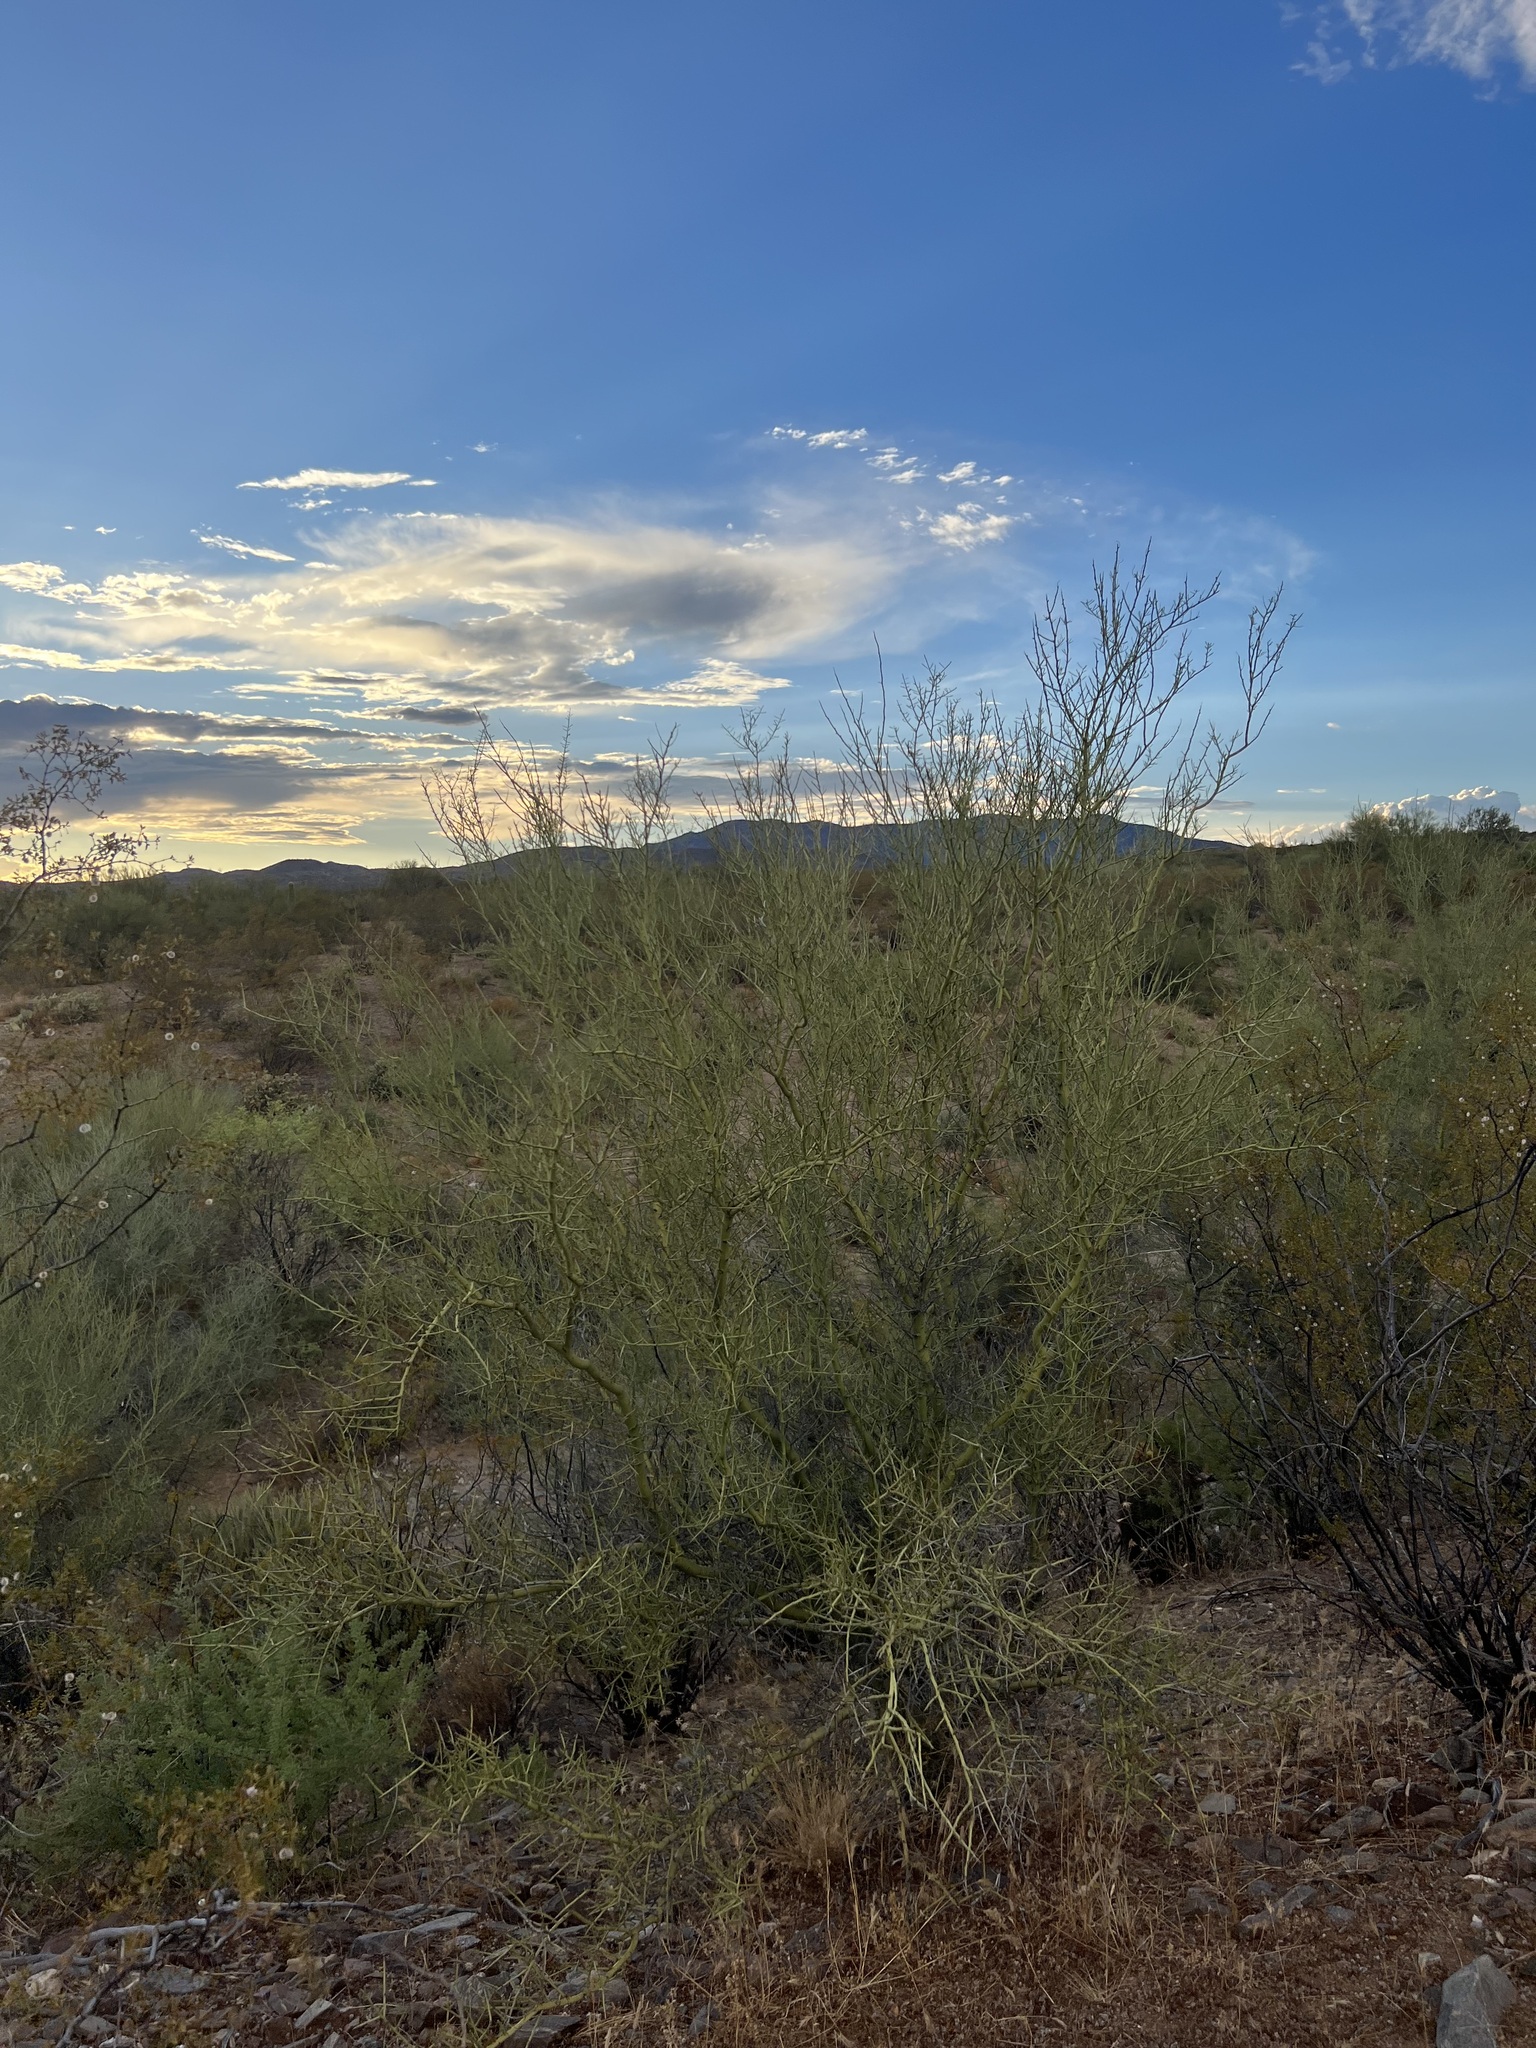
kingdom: Plantae
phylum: Tracheophyta
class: Magnoliopsida
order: Fabales
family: Fabaceae
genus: Parkinsonia
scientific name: Parkinsonia microphylla
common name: Yellow paloverde
